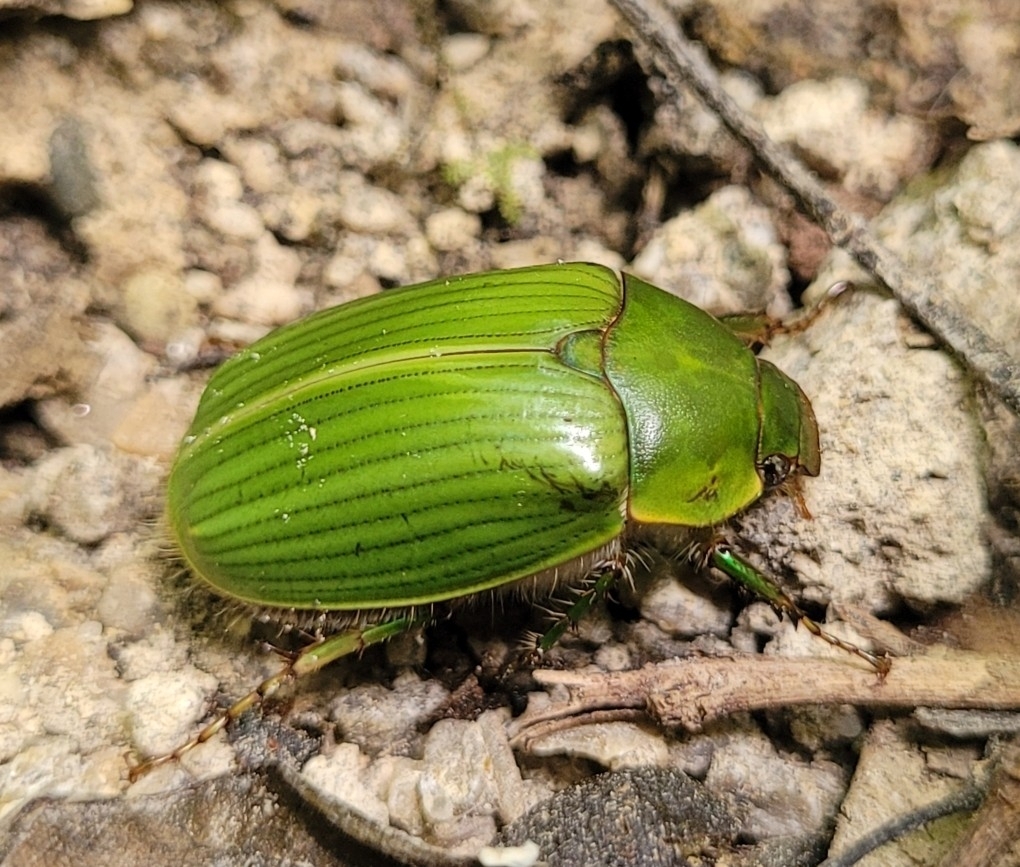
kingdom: Animalia
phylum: Arthropoda
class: Insecta
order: Coleoptera
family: Scarabaeidae
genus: Stethaspis
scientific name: Stethaspis longicornis
